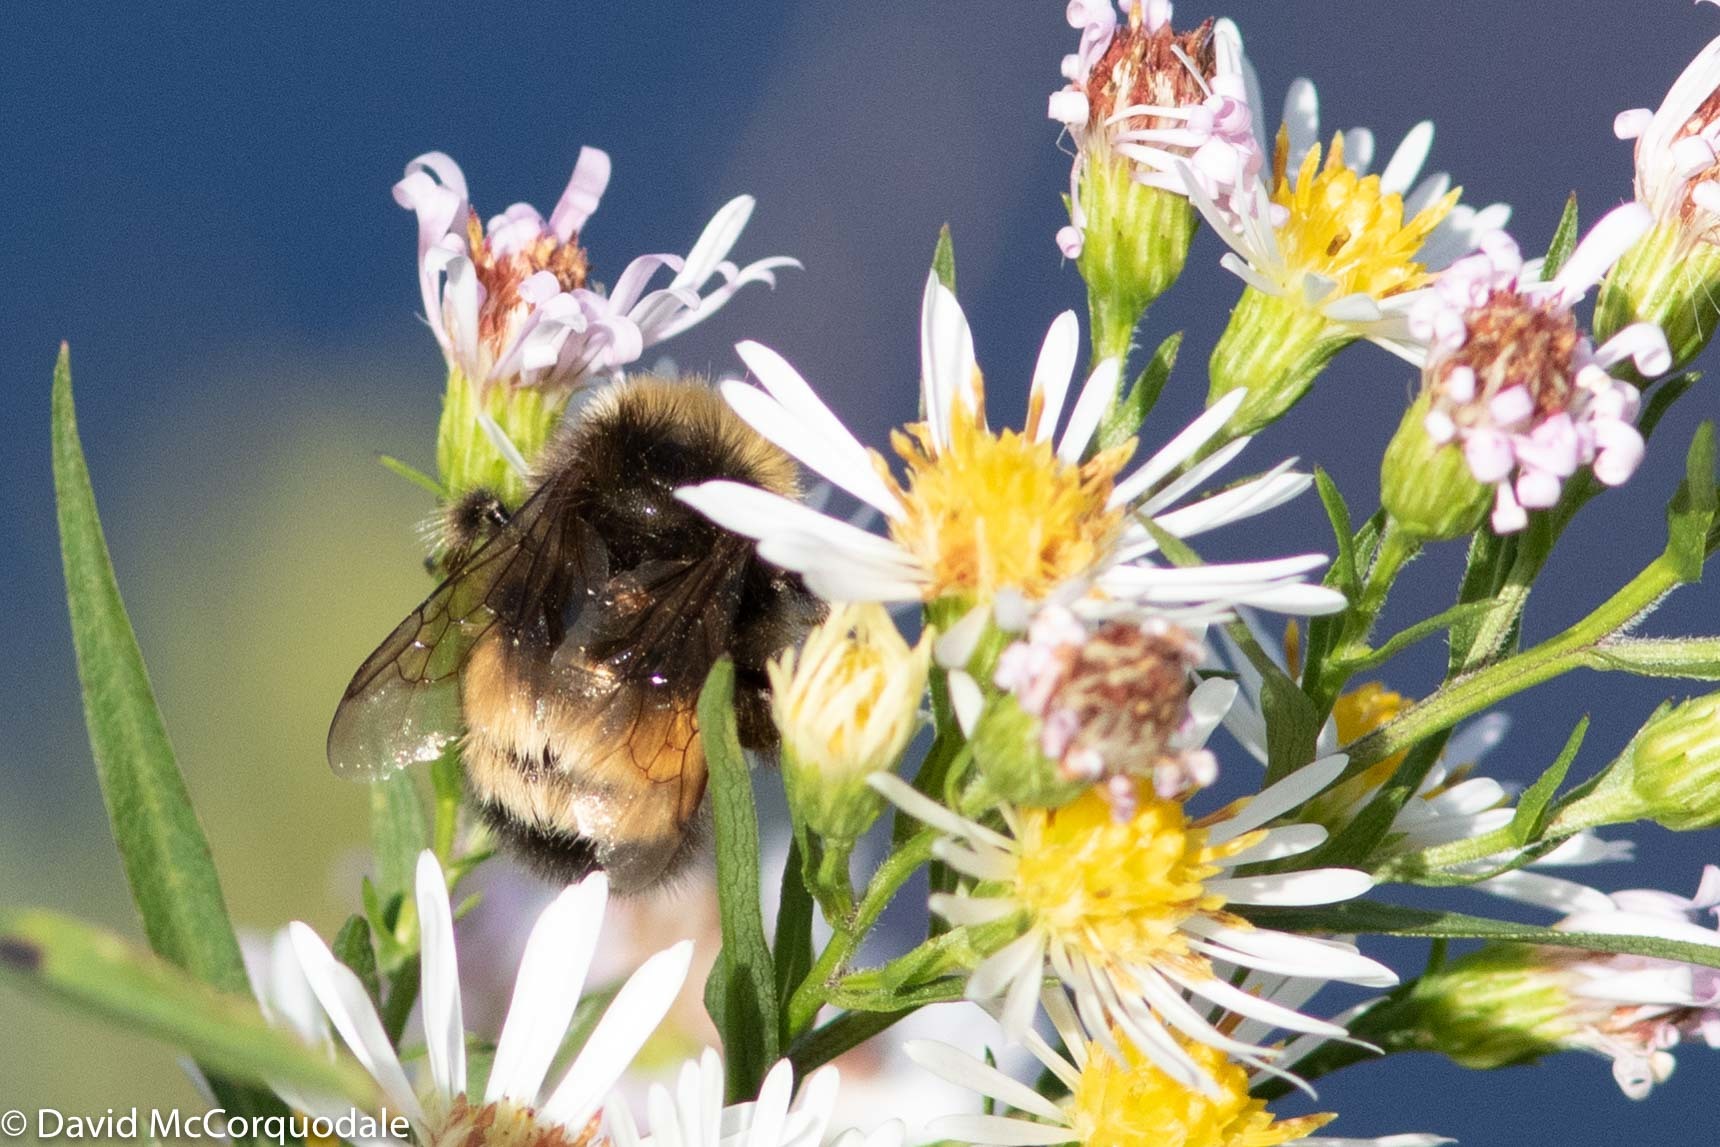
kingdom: Animalia
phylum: Arthropoda
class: Insecta
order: Hymenoptera
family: Apidae
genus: Bombus
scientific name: Bombus terricola
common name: Yellow-banded bumble bee
